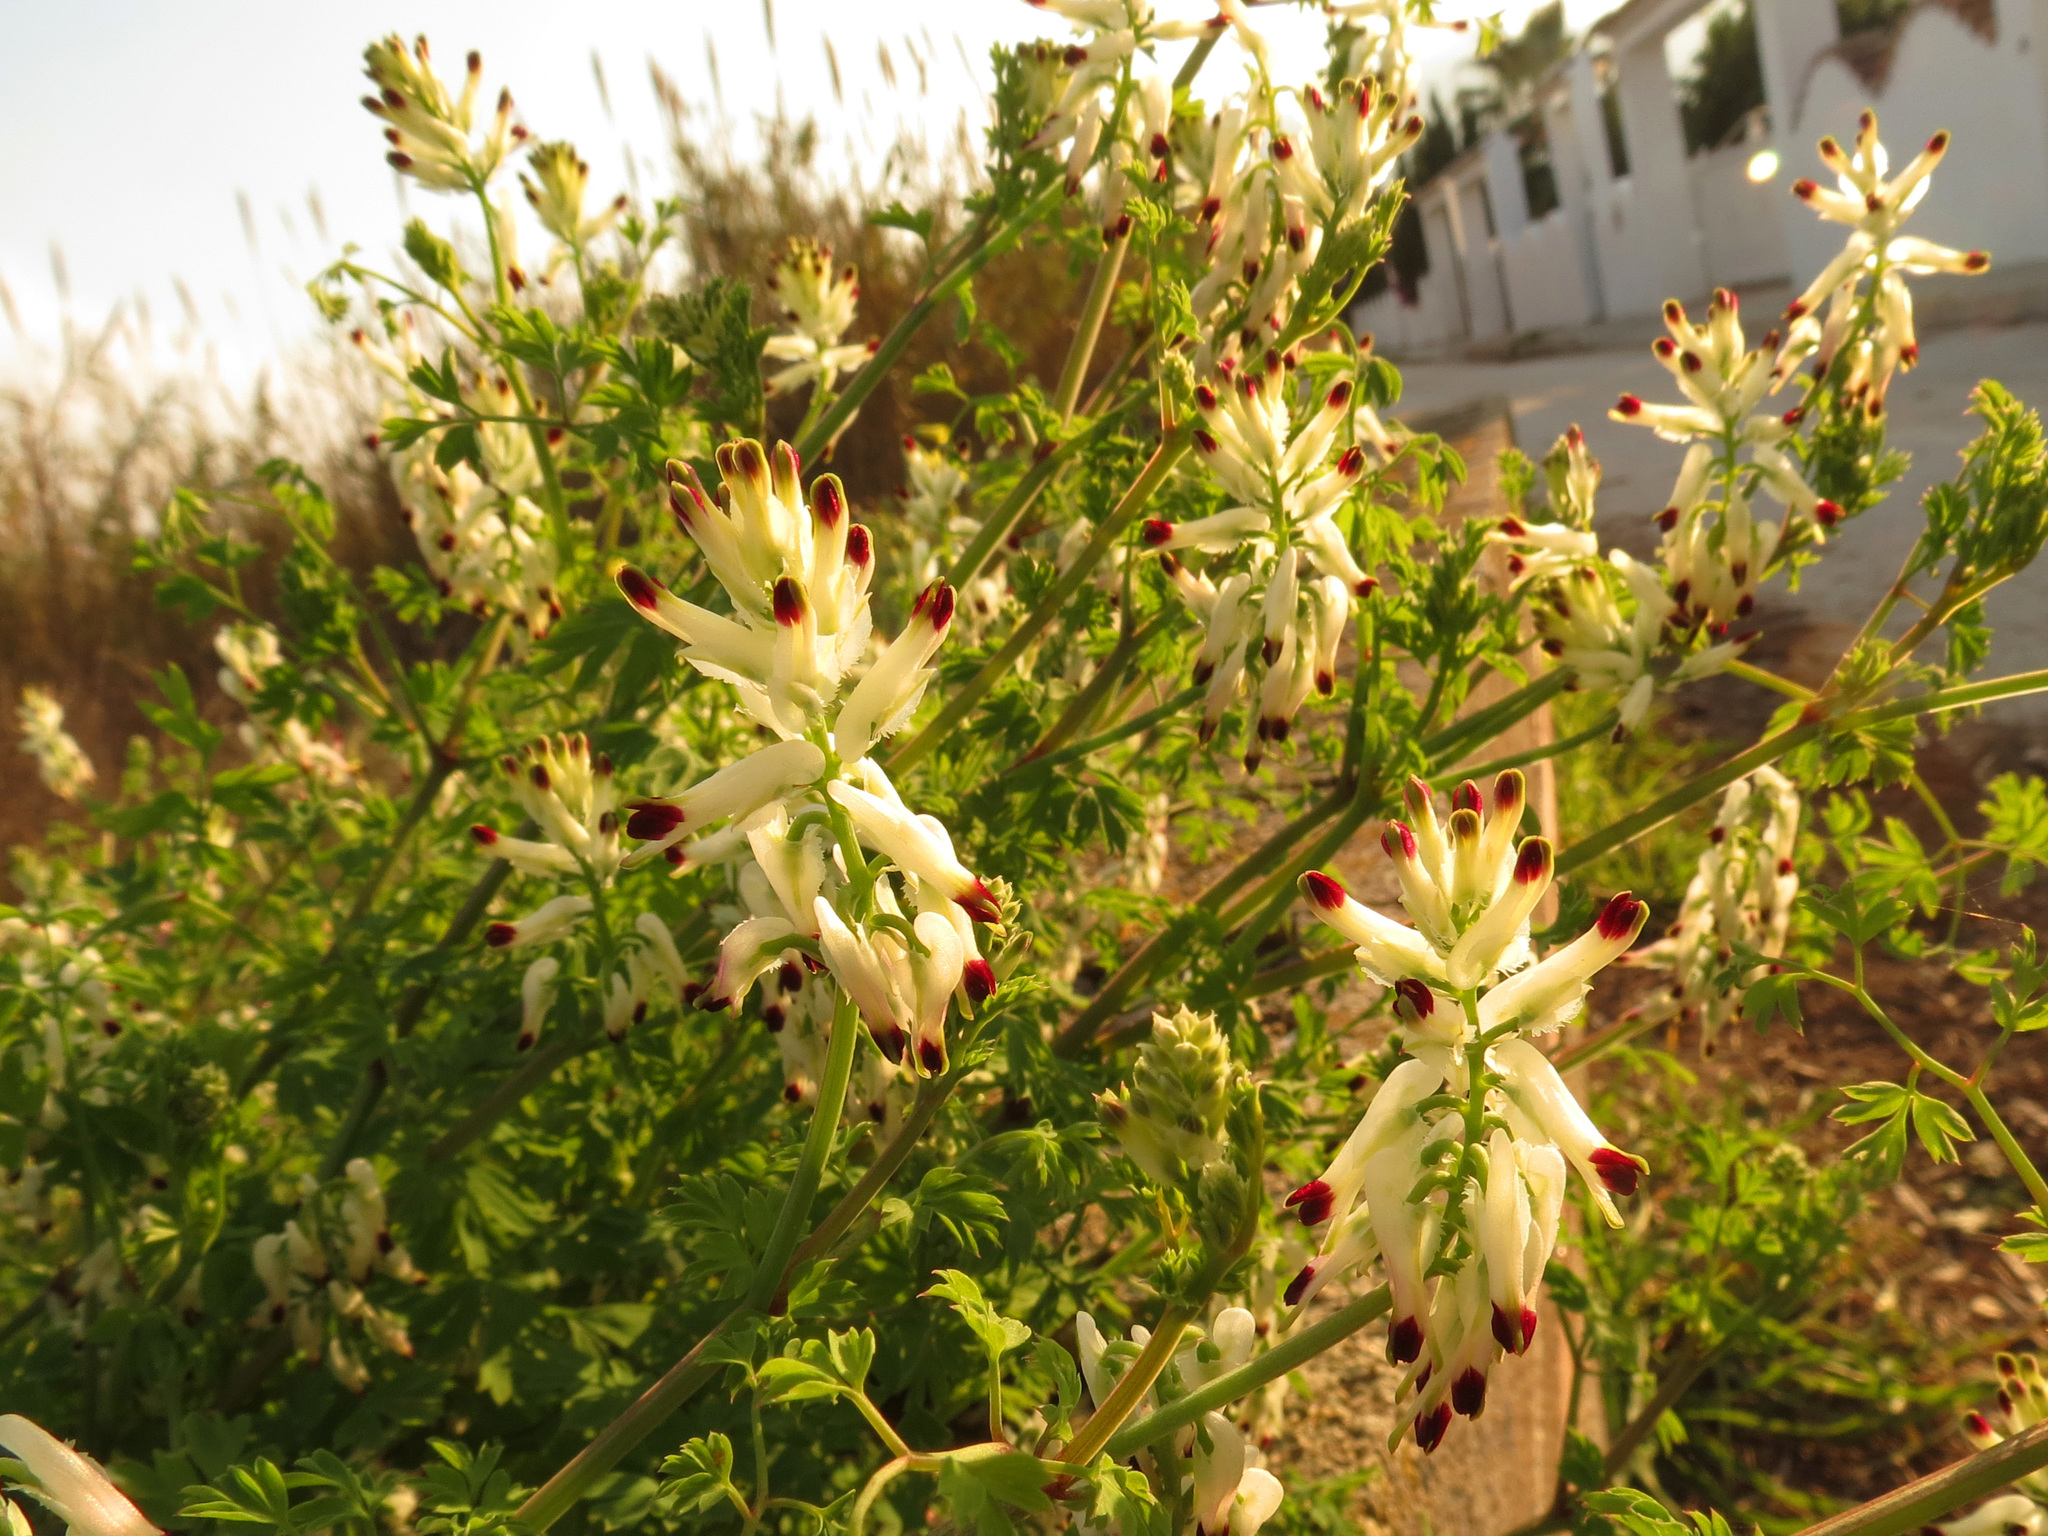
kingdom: Plantae
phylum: Tracheophyta
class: Magnoliopsida
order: Ranunculales
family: Papaveraceae
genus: Fumaria
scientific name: Fumaria capreolata
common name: White ramping-fumitory
